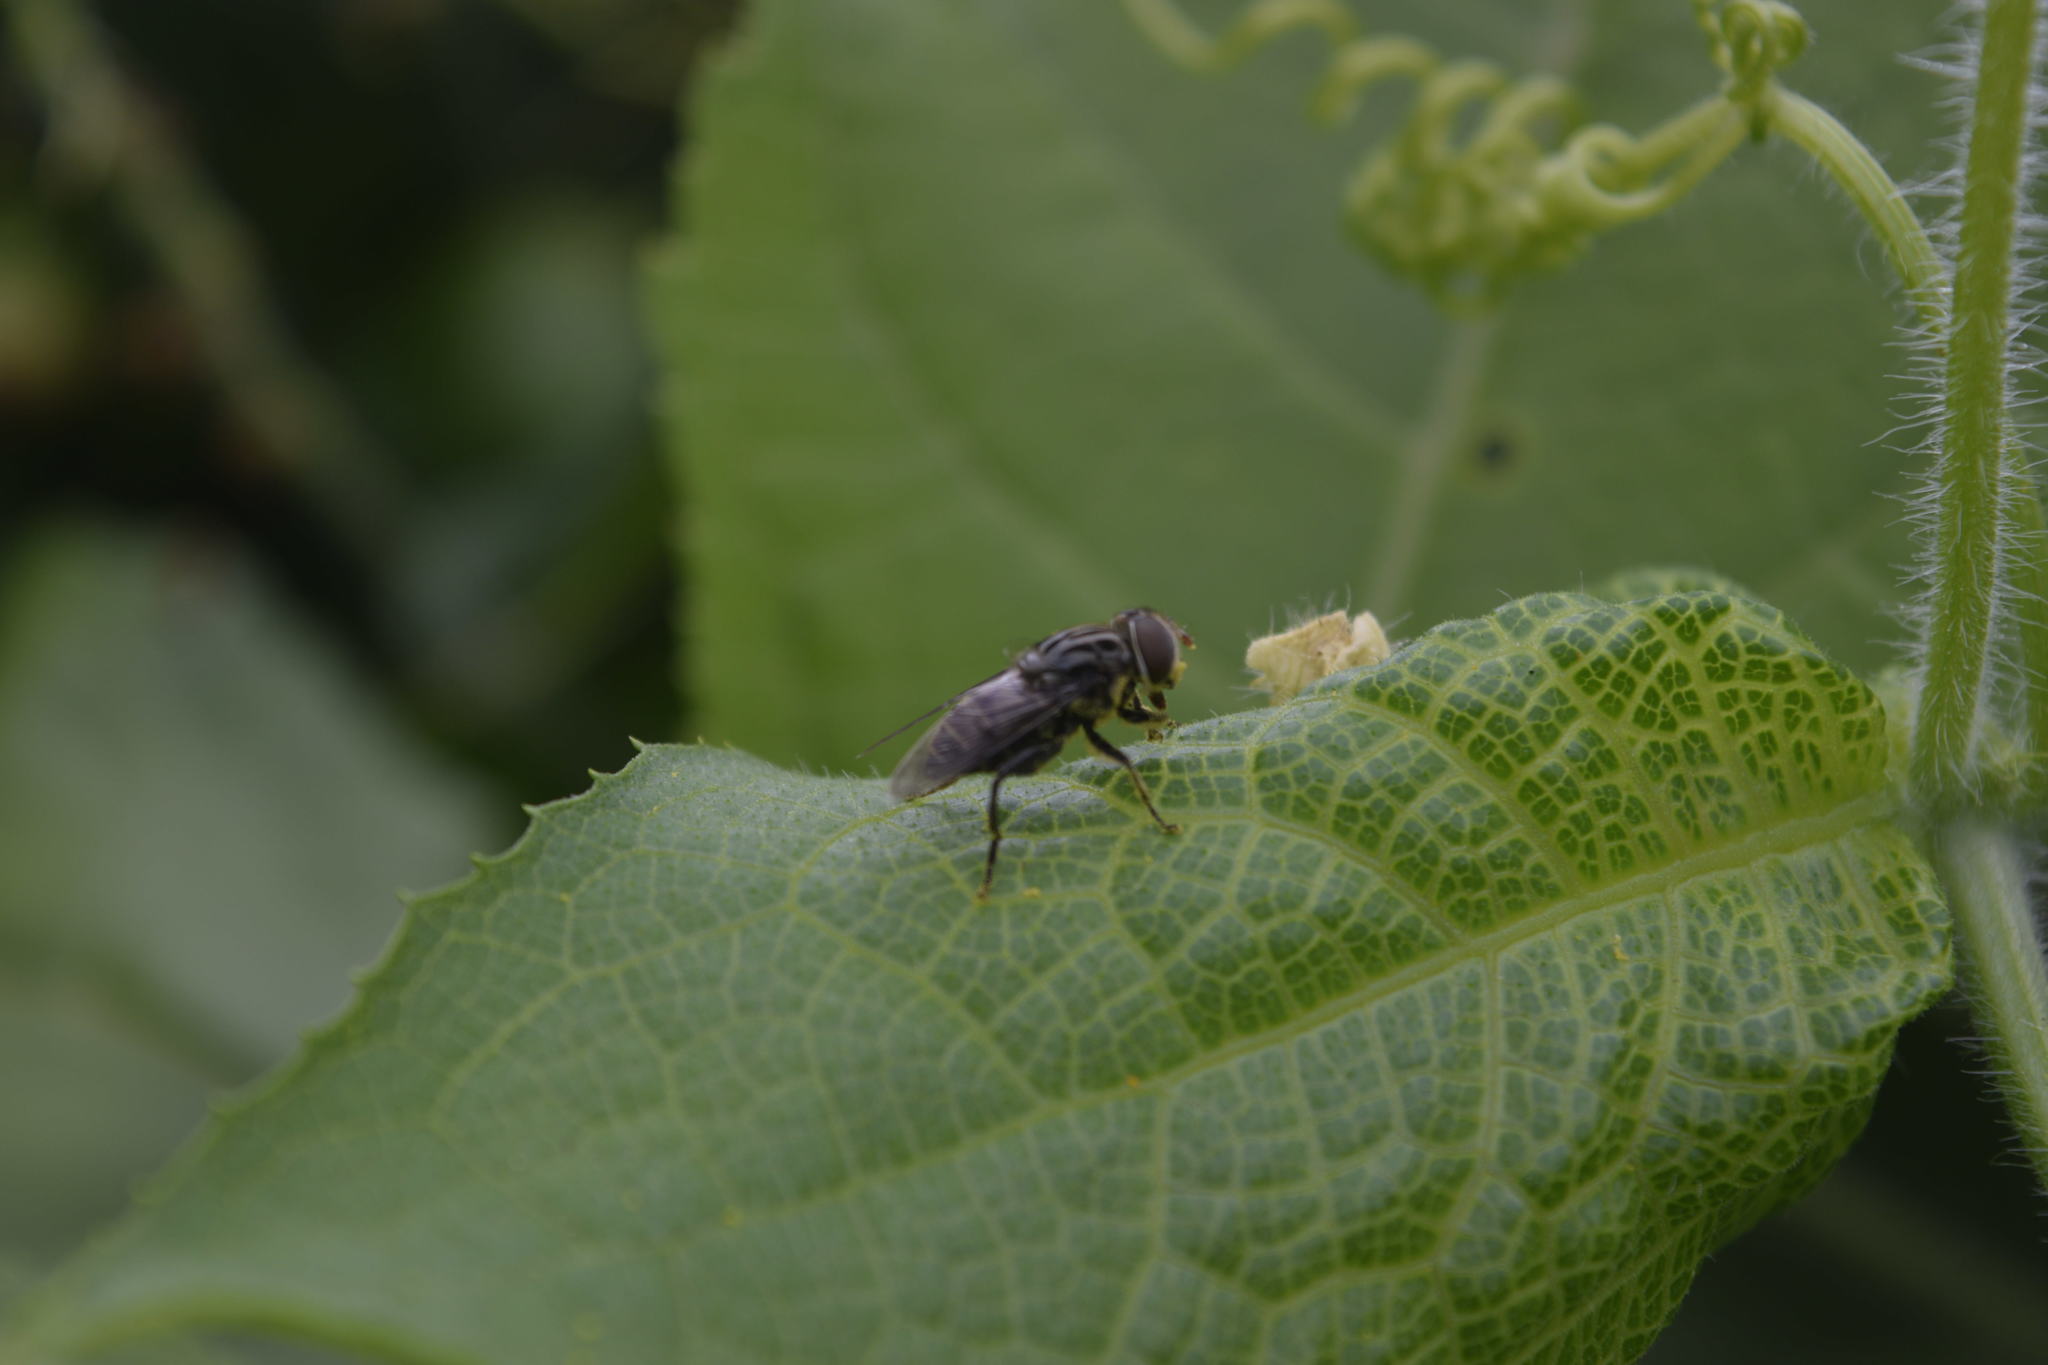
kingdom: Animalia
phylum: Arthropoda
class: Insecta
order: Diptera
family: Syrphidae
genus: Palpada
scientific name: Palpada furcata
